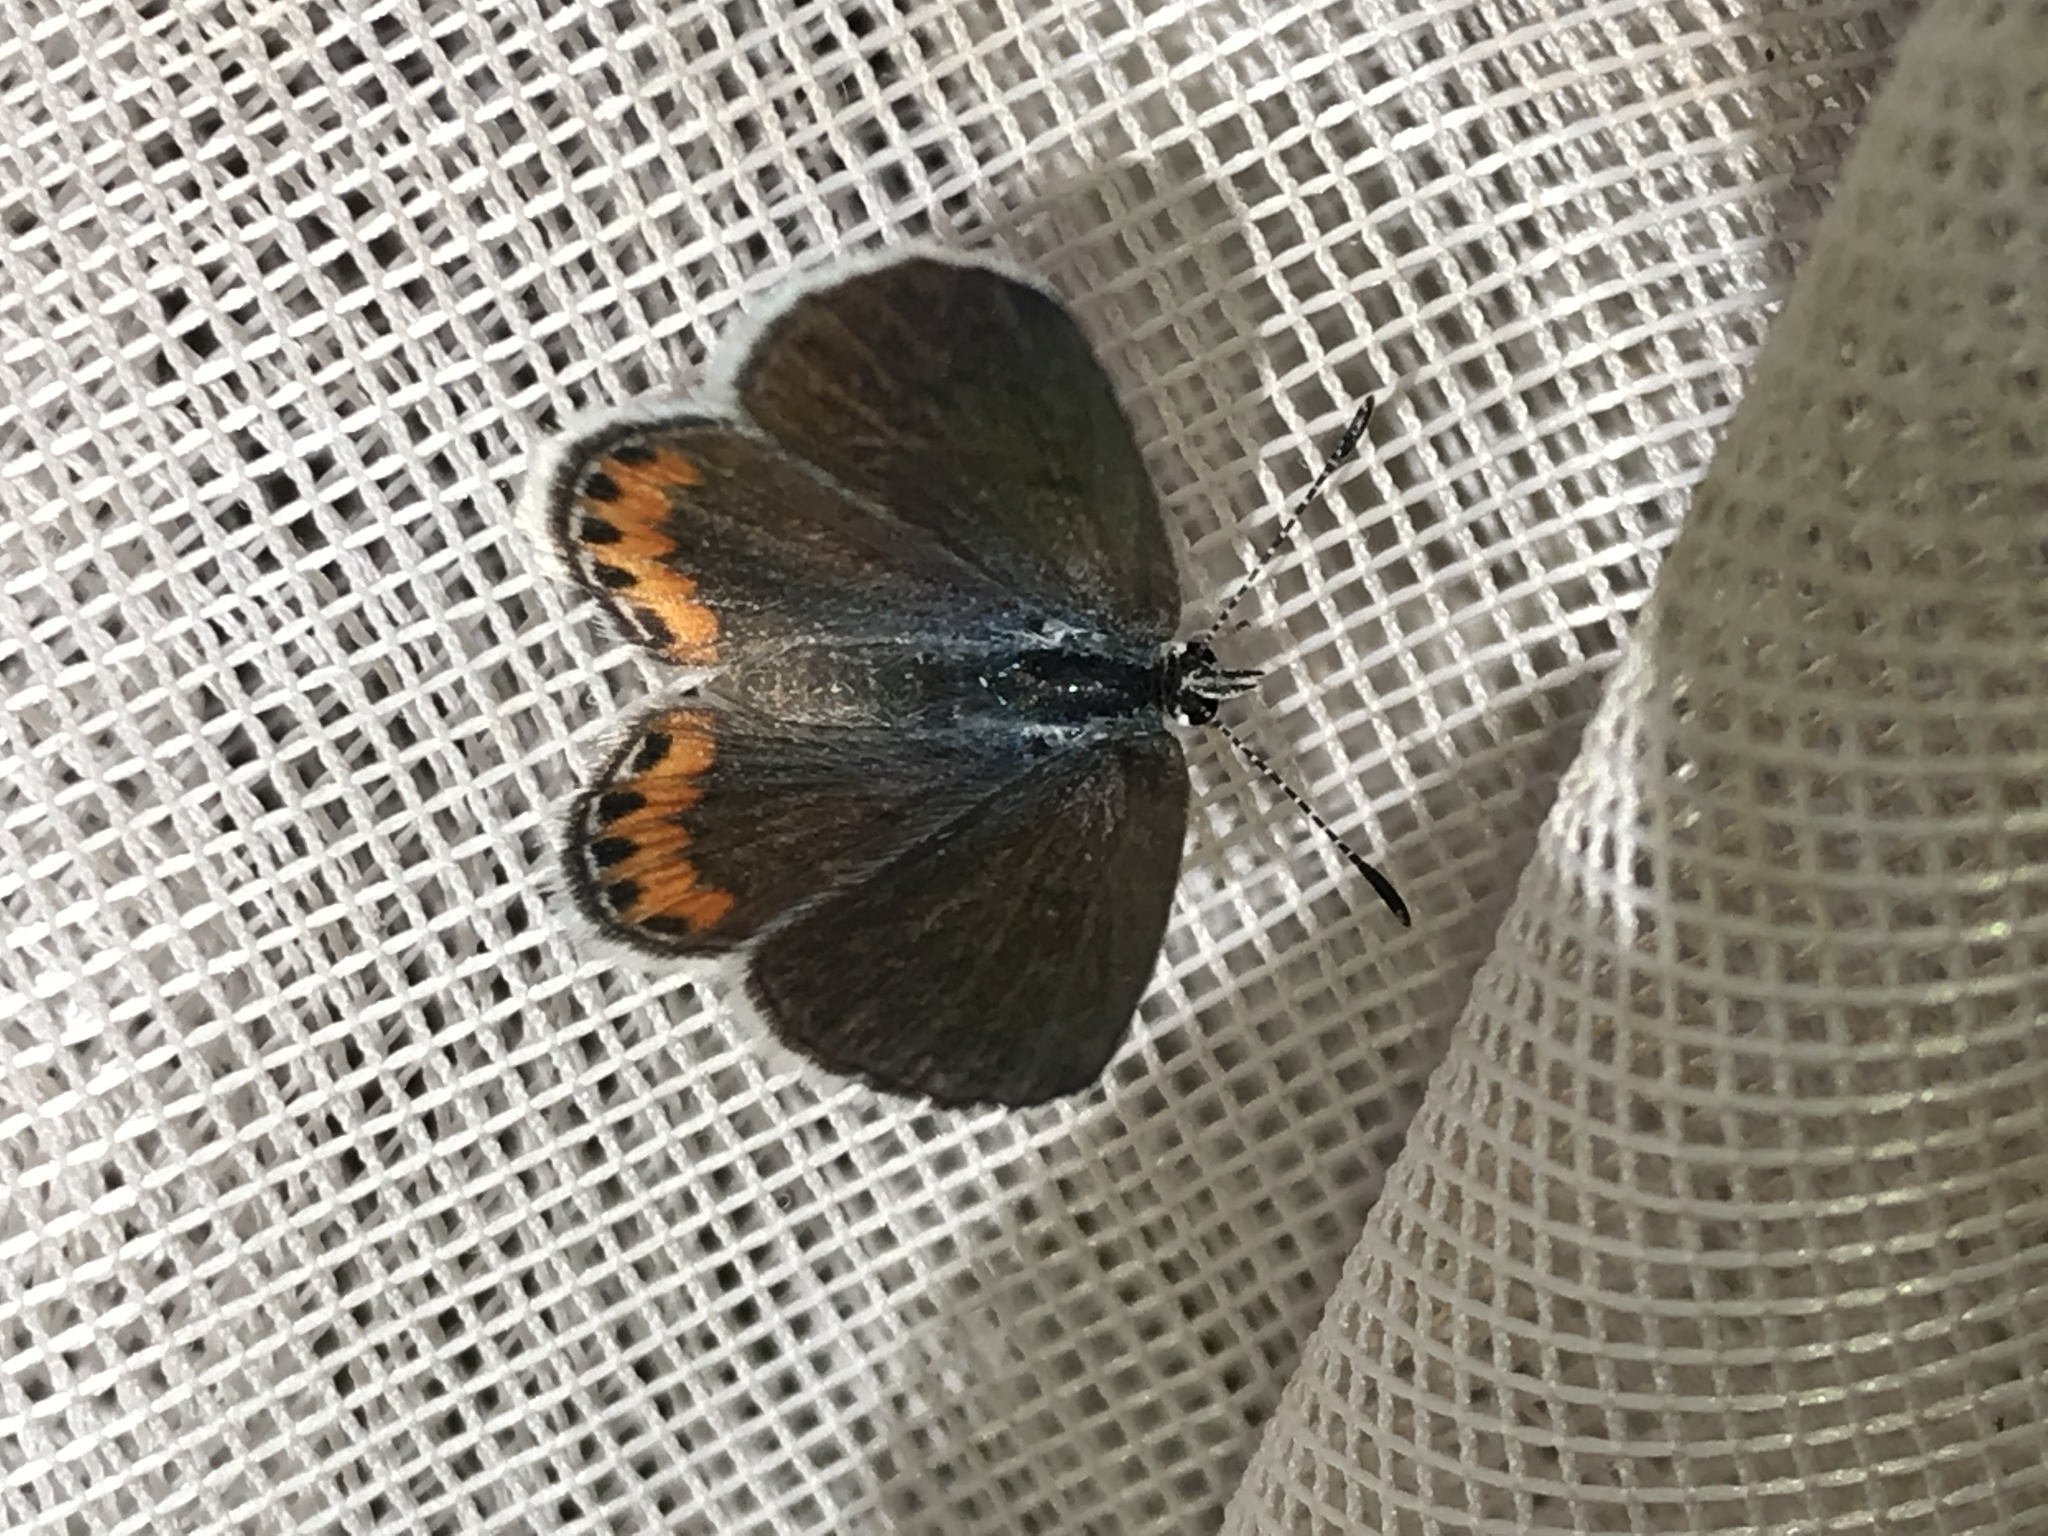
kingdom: Animalia
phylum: Arthropoda
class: Insecta
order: Lepidoptera
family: Lycaenidae
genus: Icaricia
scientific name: Icaricia lupini
